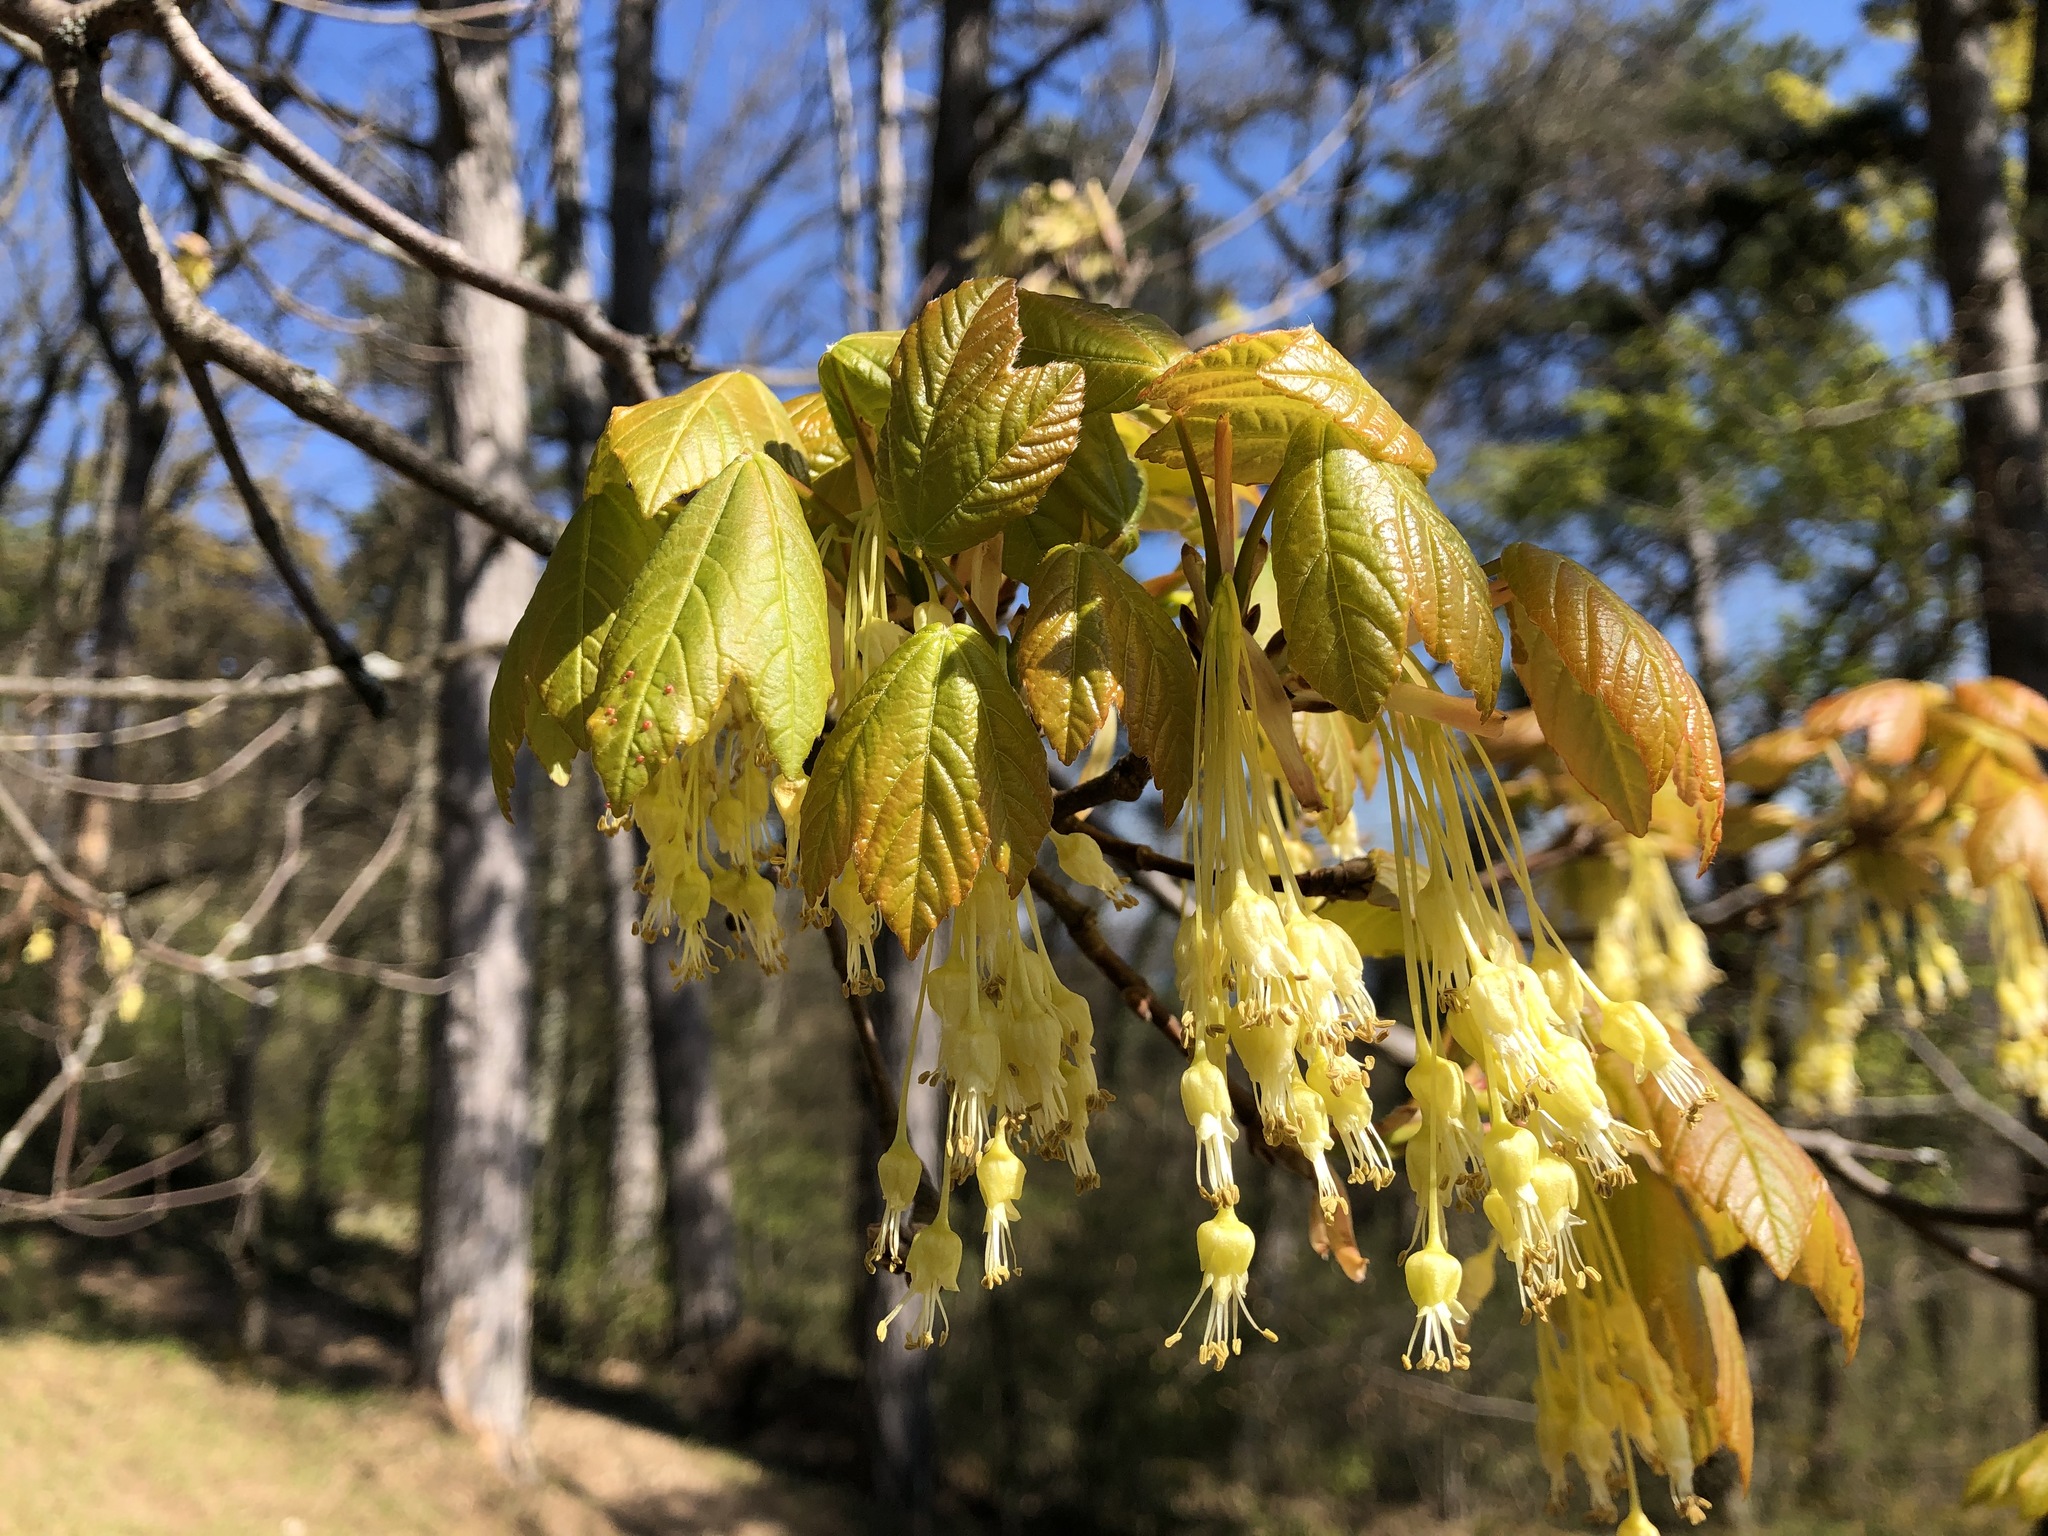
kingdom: Plantae
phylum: Tracheophyta
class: Magnoliopsida
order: Sapindales
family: Sapindaceae
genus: Acer
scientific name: Acer opalus
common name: Italian maple
